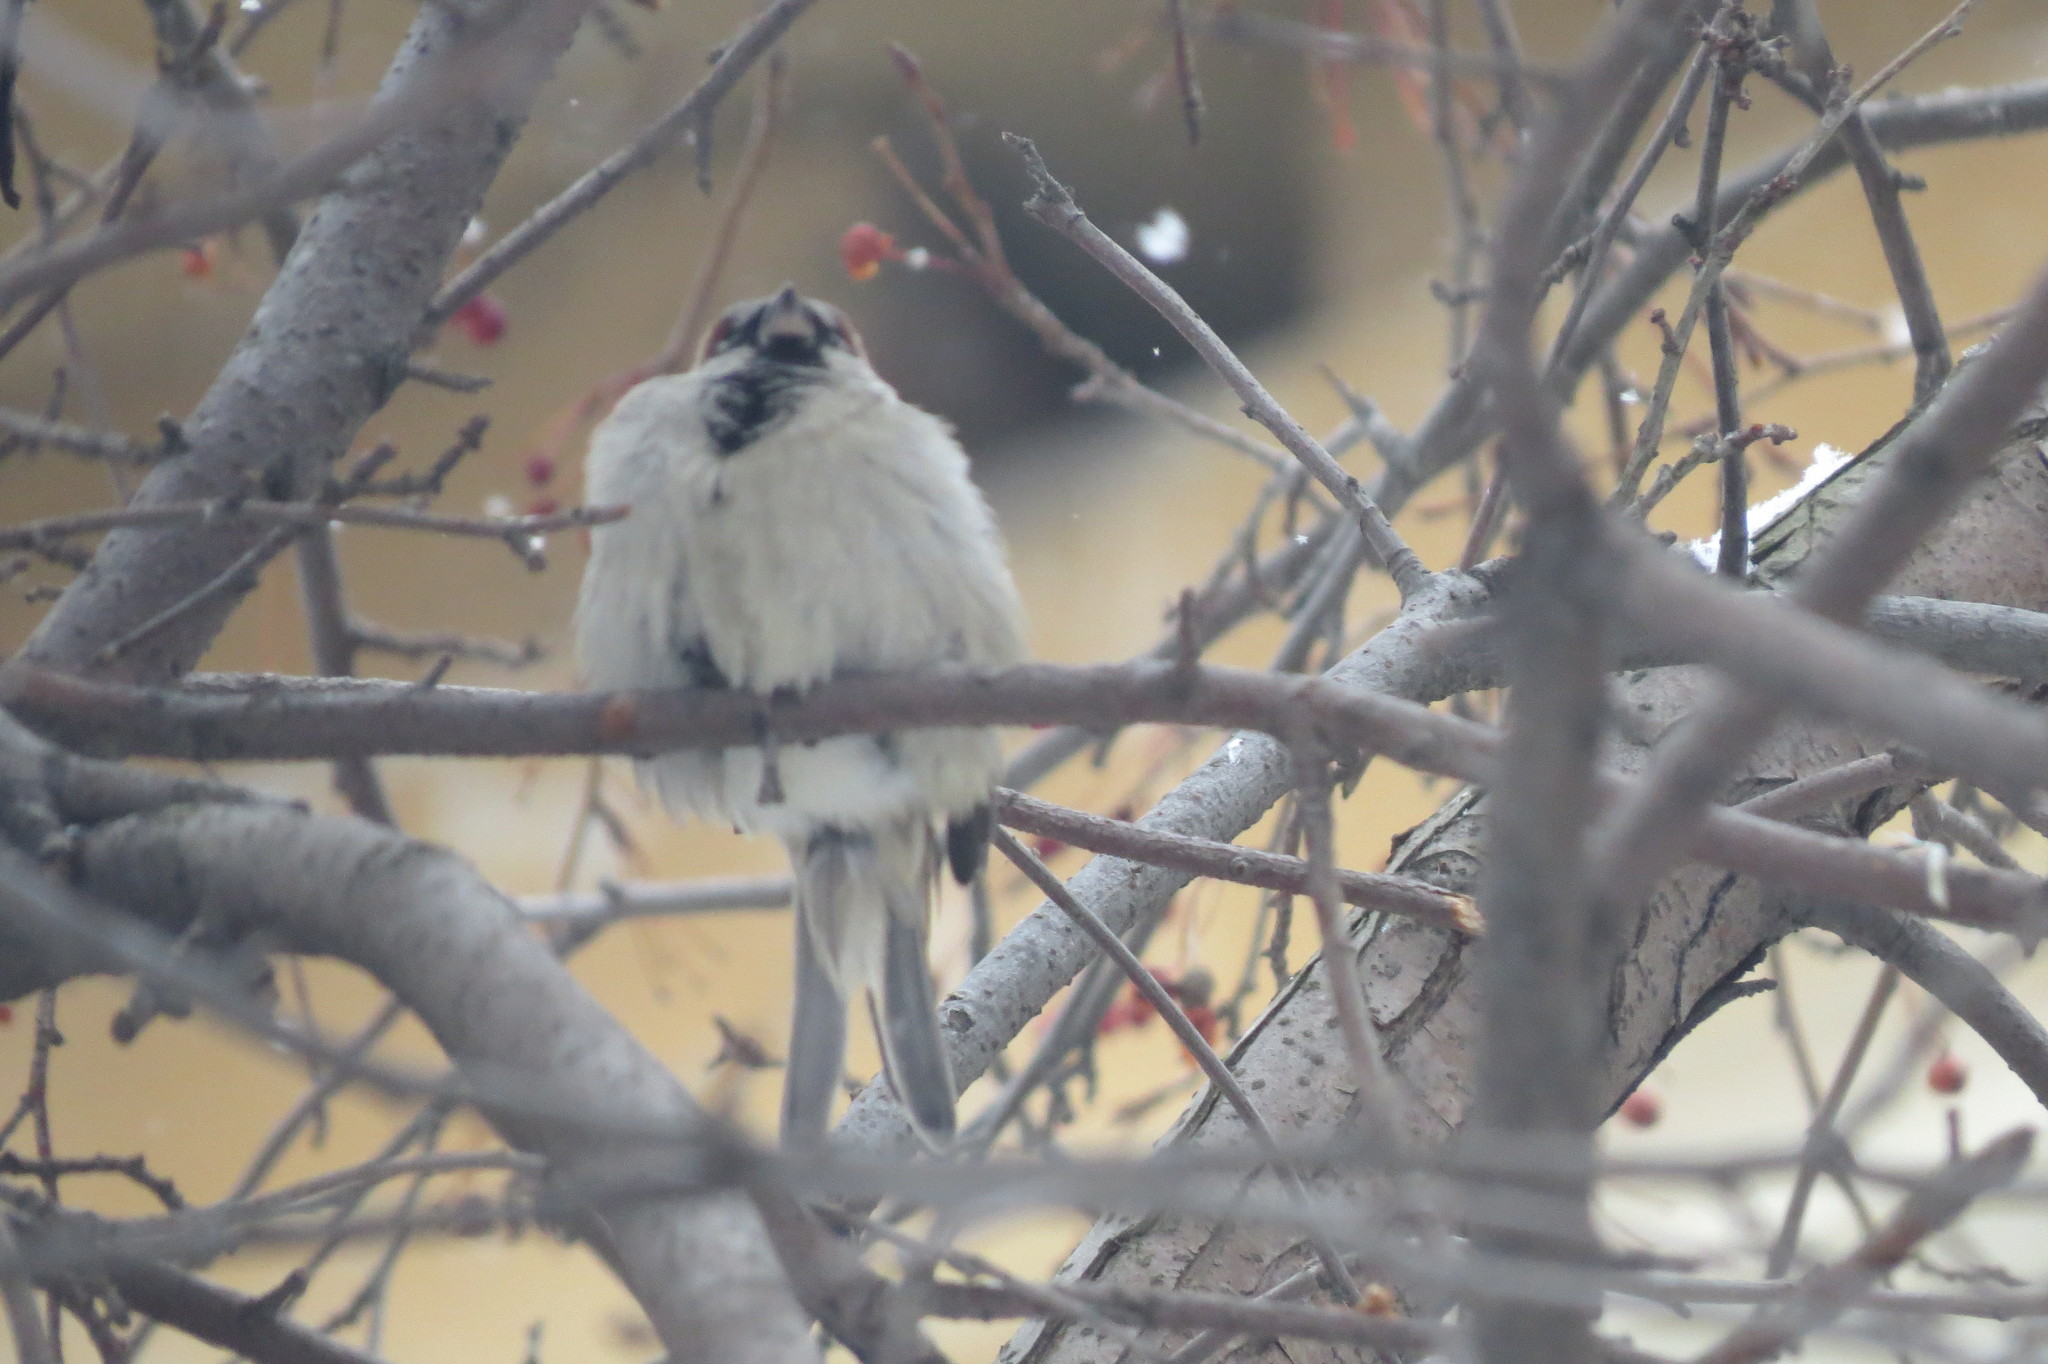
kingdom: Animalia
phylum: Chordata
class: Aves
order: Passeriformes
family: Passeridae
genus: Passer
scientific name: Passer domesticus
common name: House sparrow
